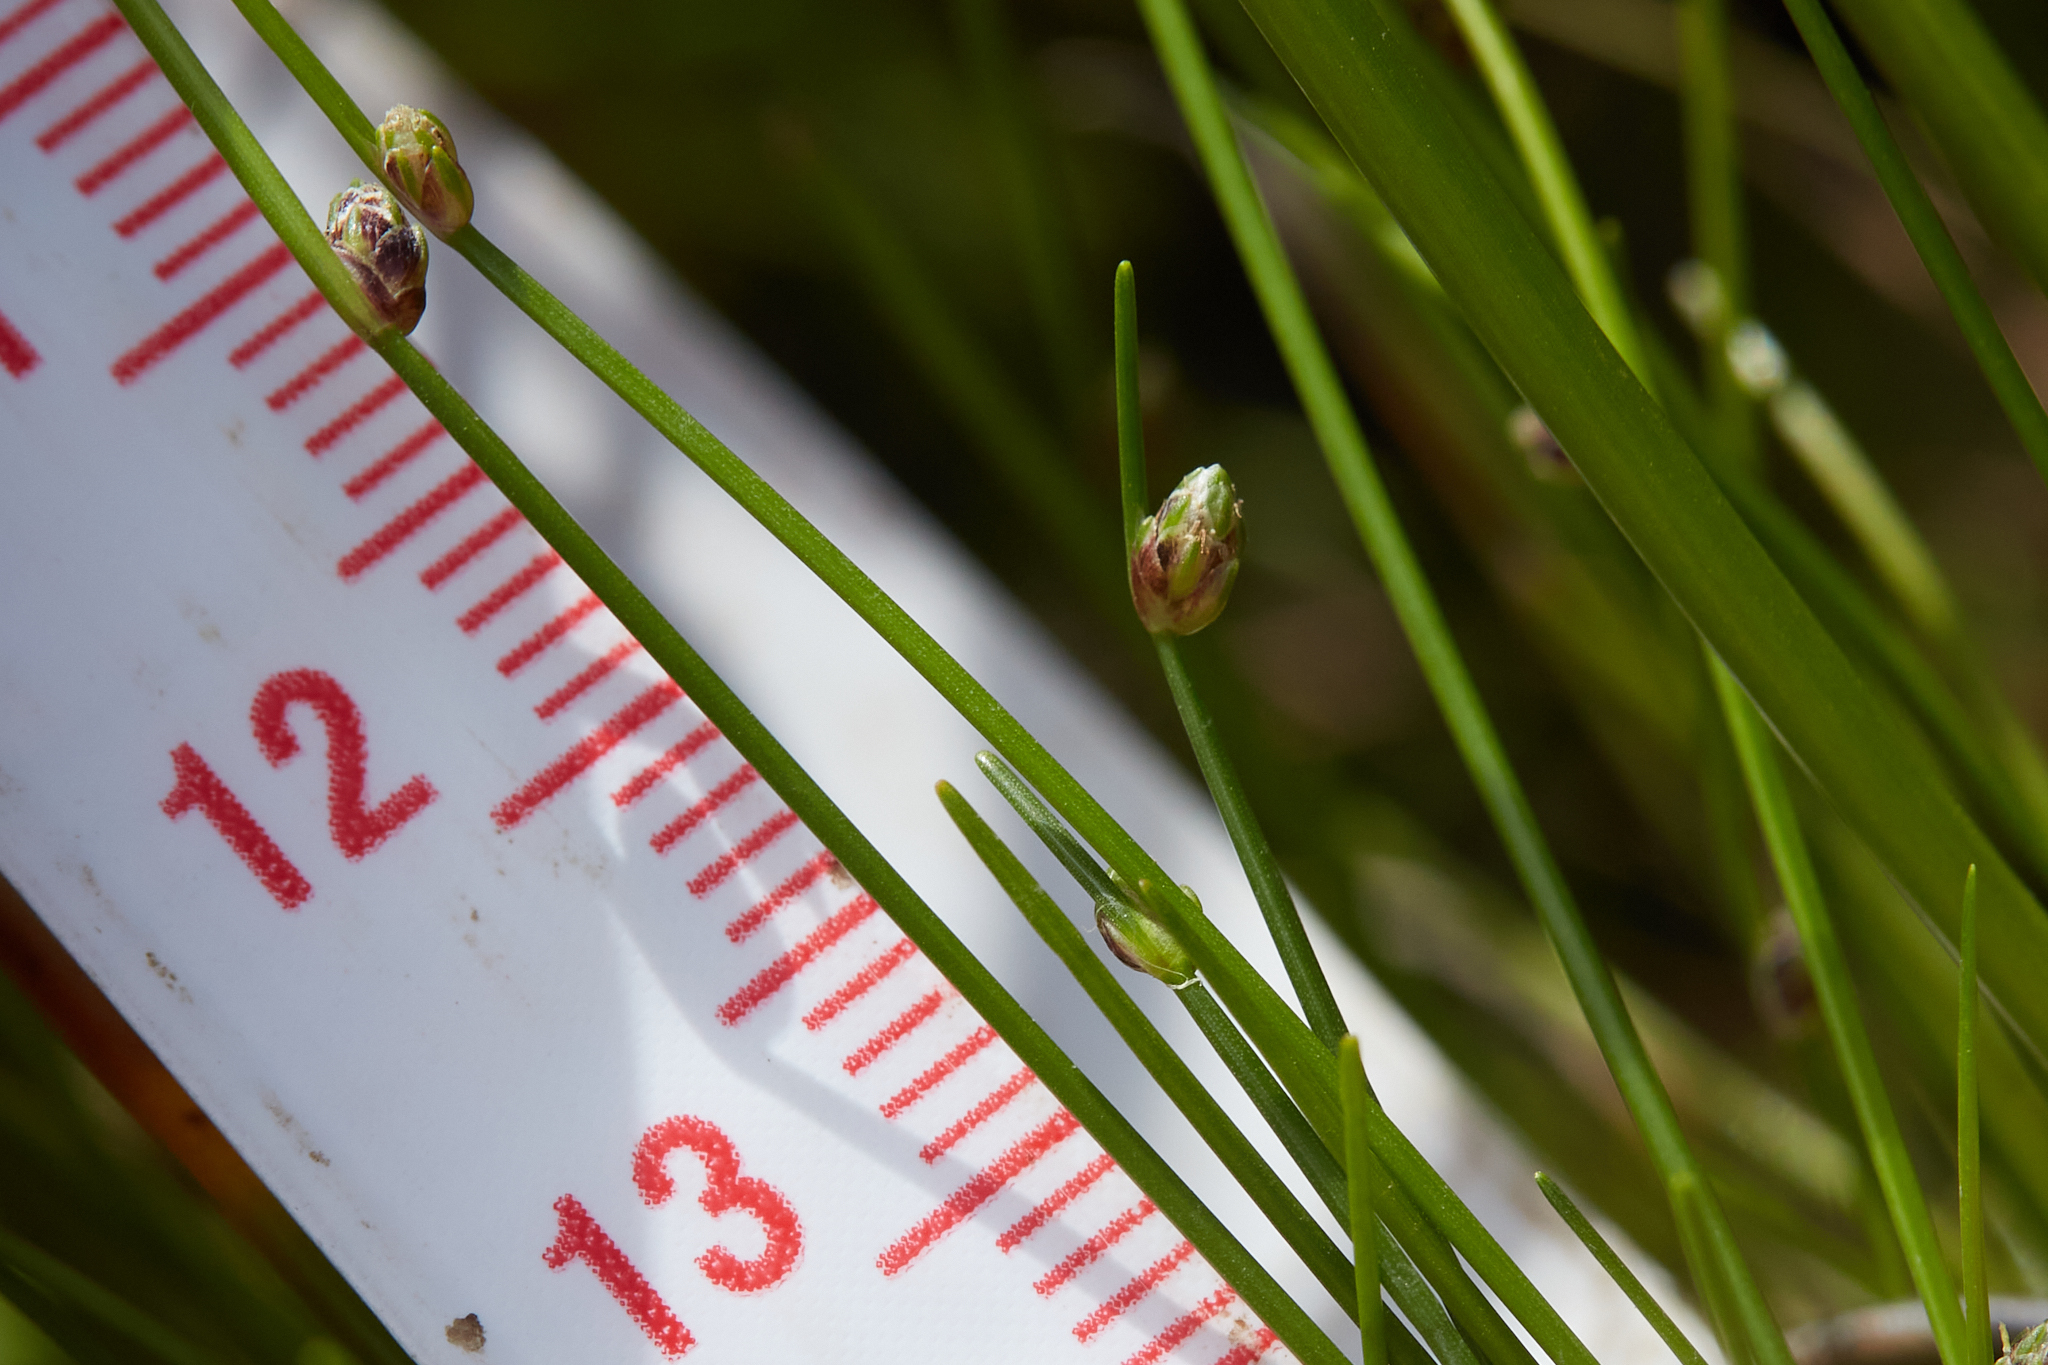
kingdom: Plantae
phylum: Tracheophyta
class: Liliopsida
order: Poales
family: Cyperaceae
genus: Isolepis
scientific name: Isolepis cernua
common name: Slender club-rush
